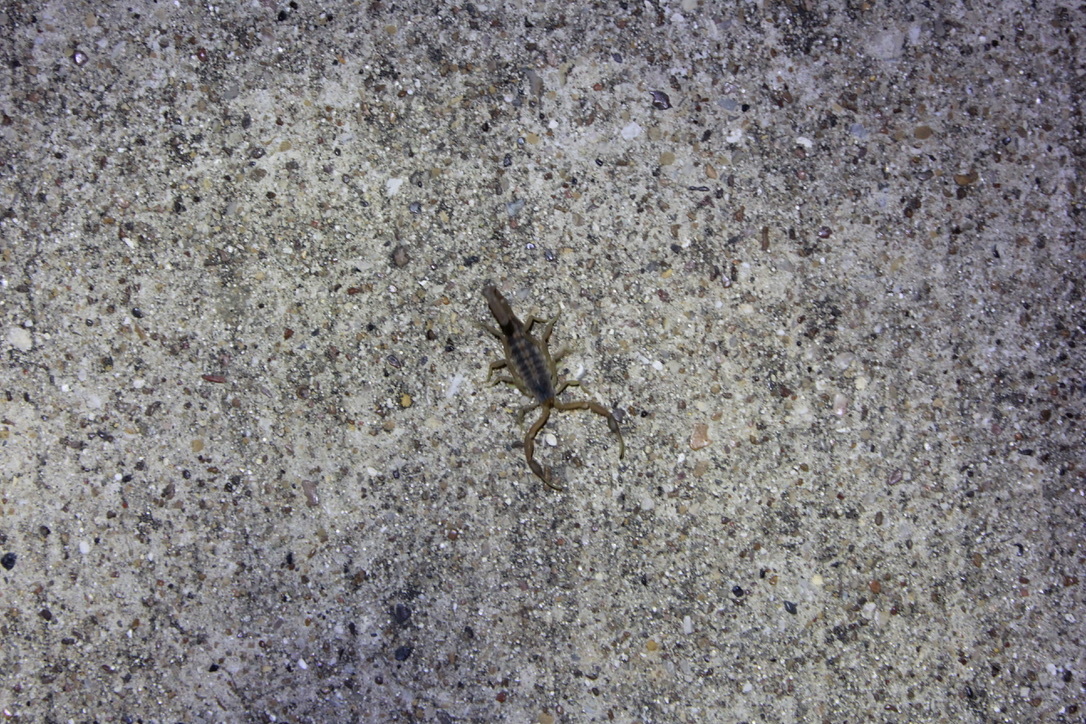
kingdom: Animalia
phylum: Arthropoda
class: Arachnida
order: Scorpiones
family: Buthidae
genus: Centruroides
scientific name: Centruroides vittatus
